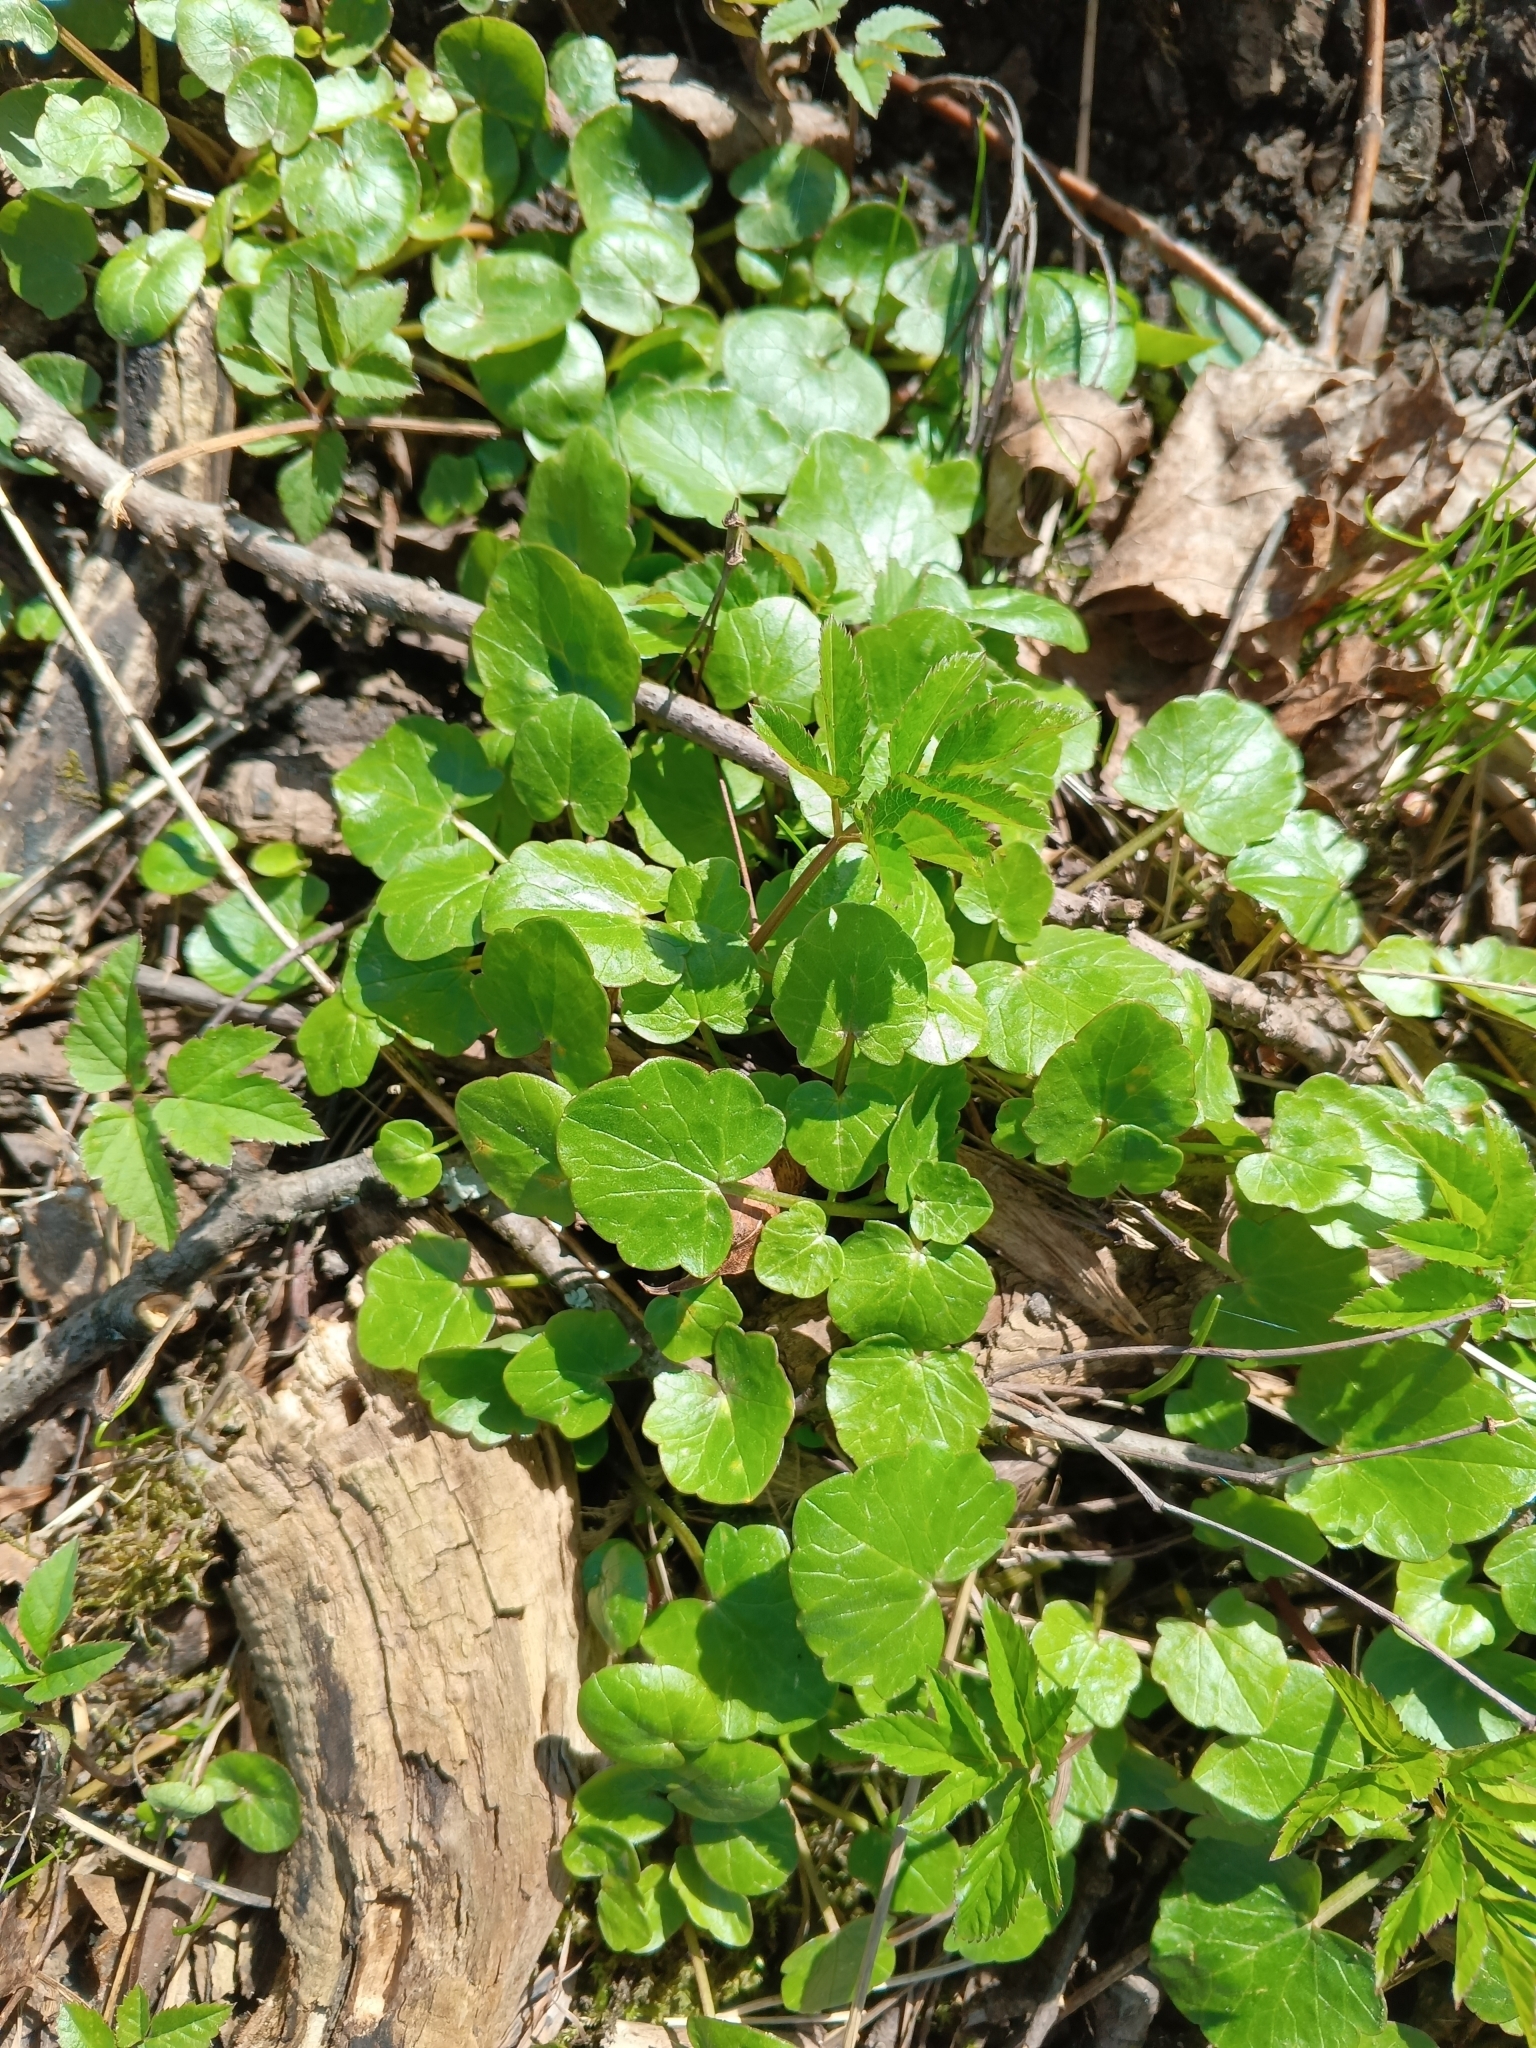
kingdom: Plantae
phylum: Tracheophyta
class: Magnoliopsida
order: Ranunculales
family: Ranunculaceae
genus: Ficaria
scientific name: Ficaria verna
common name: Lesser celandine
